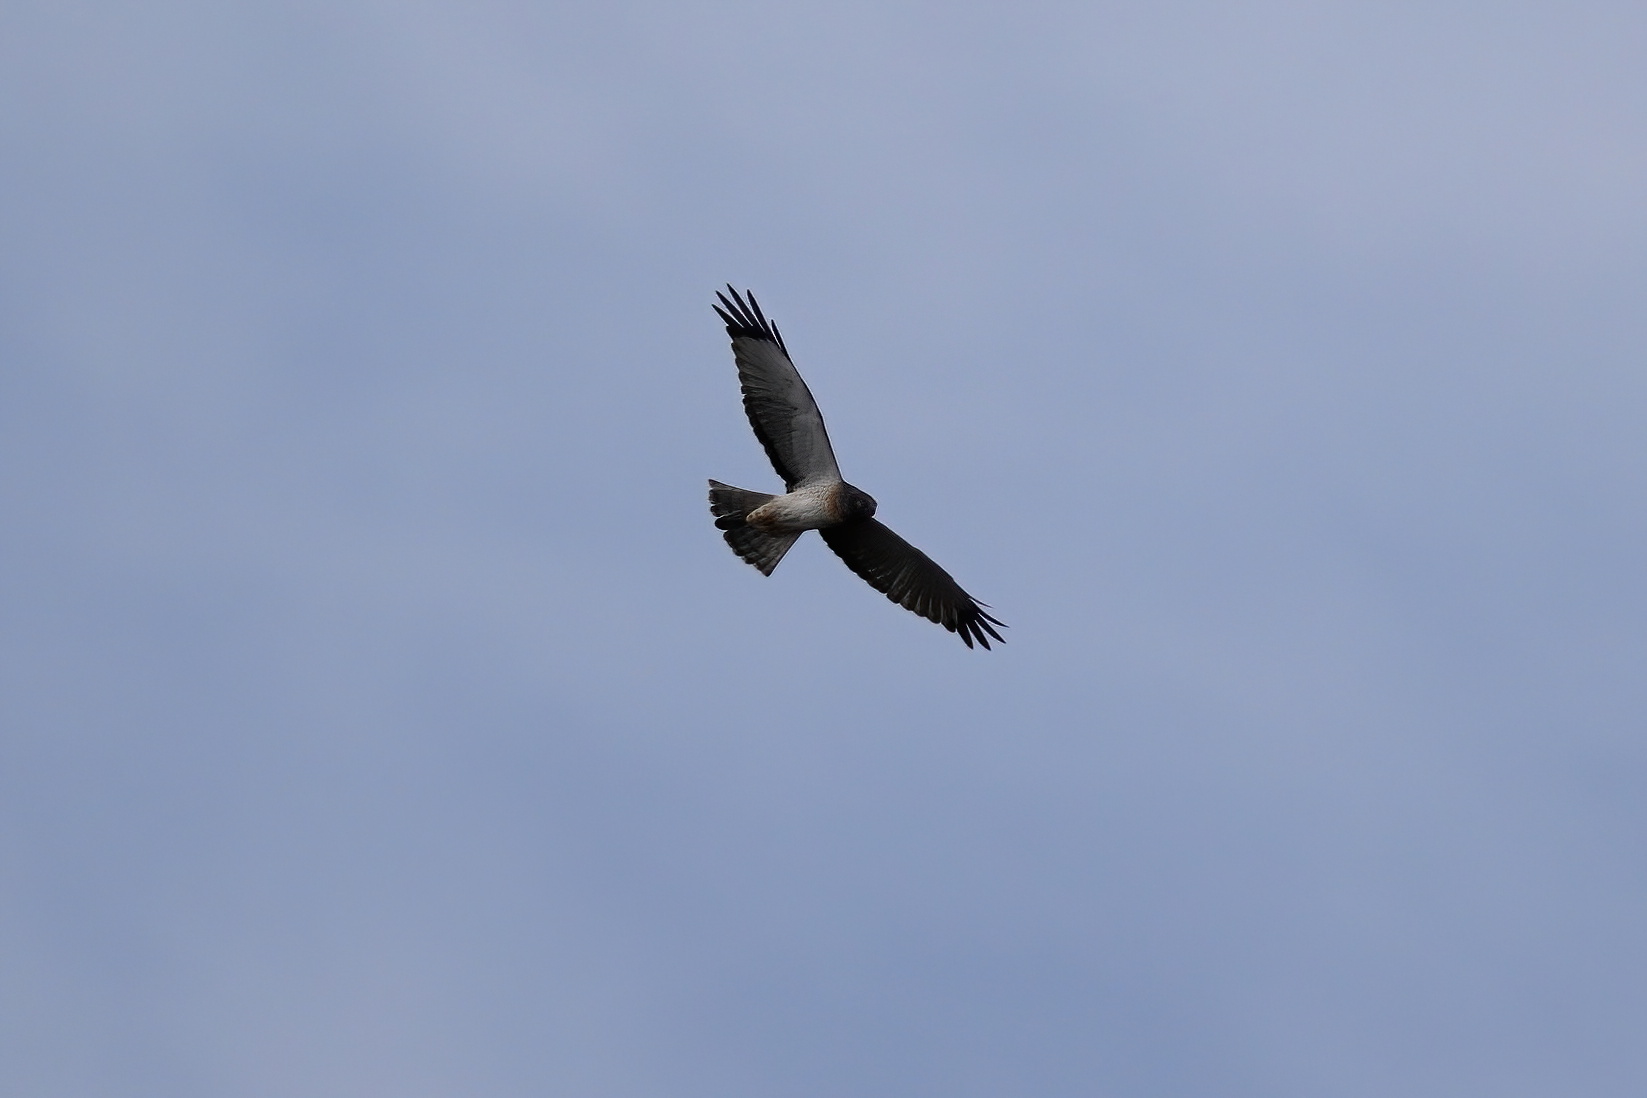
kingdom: Animalia
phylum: Chordata
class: Aves
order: Accipitriformes
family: Accipitridae
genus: Circus
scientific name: Circus cyaneus
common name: Hen harrier
